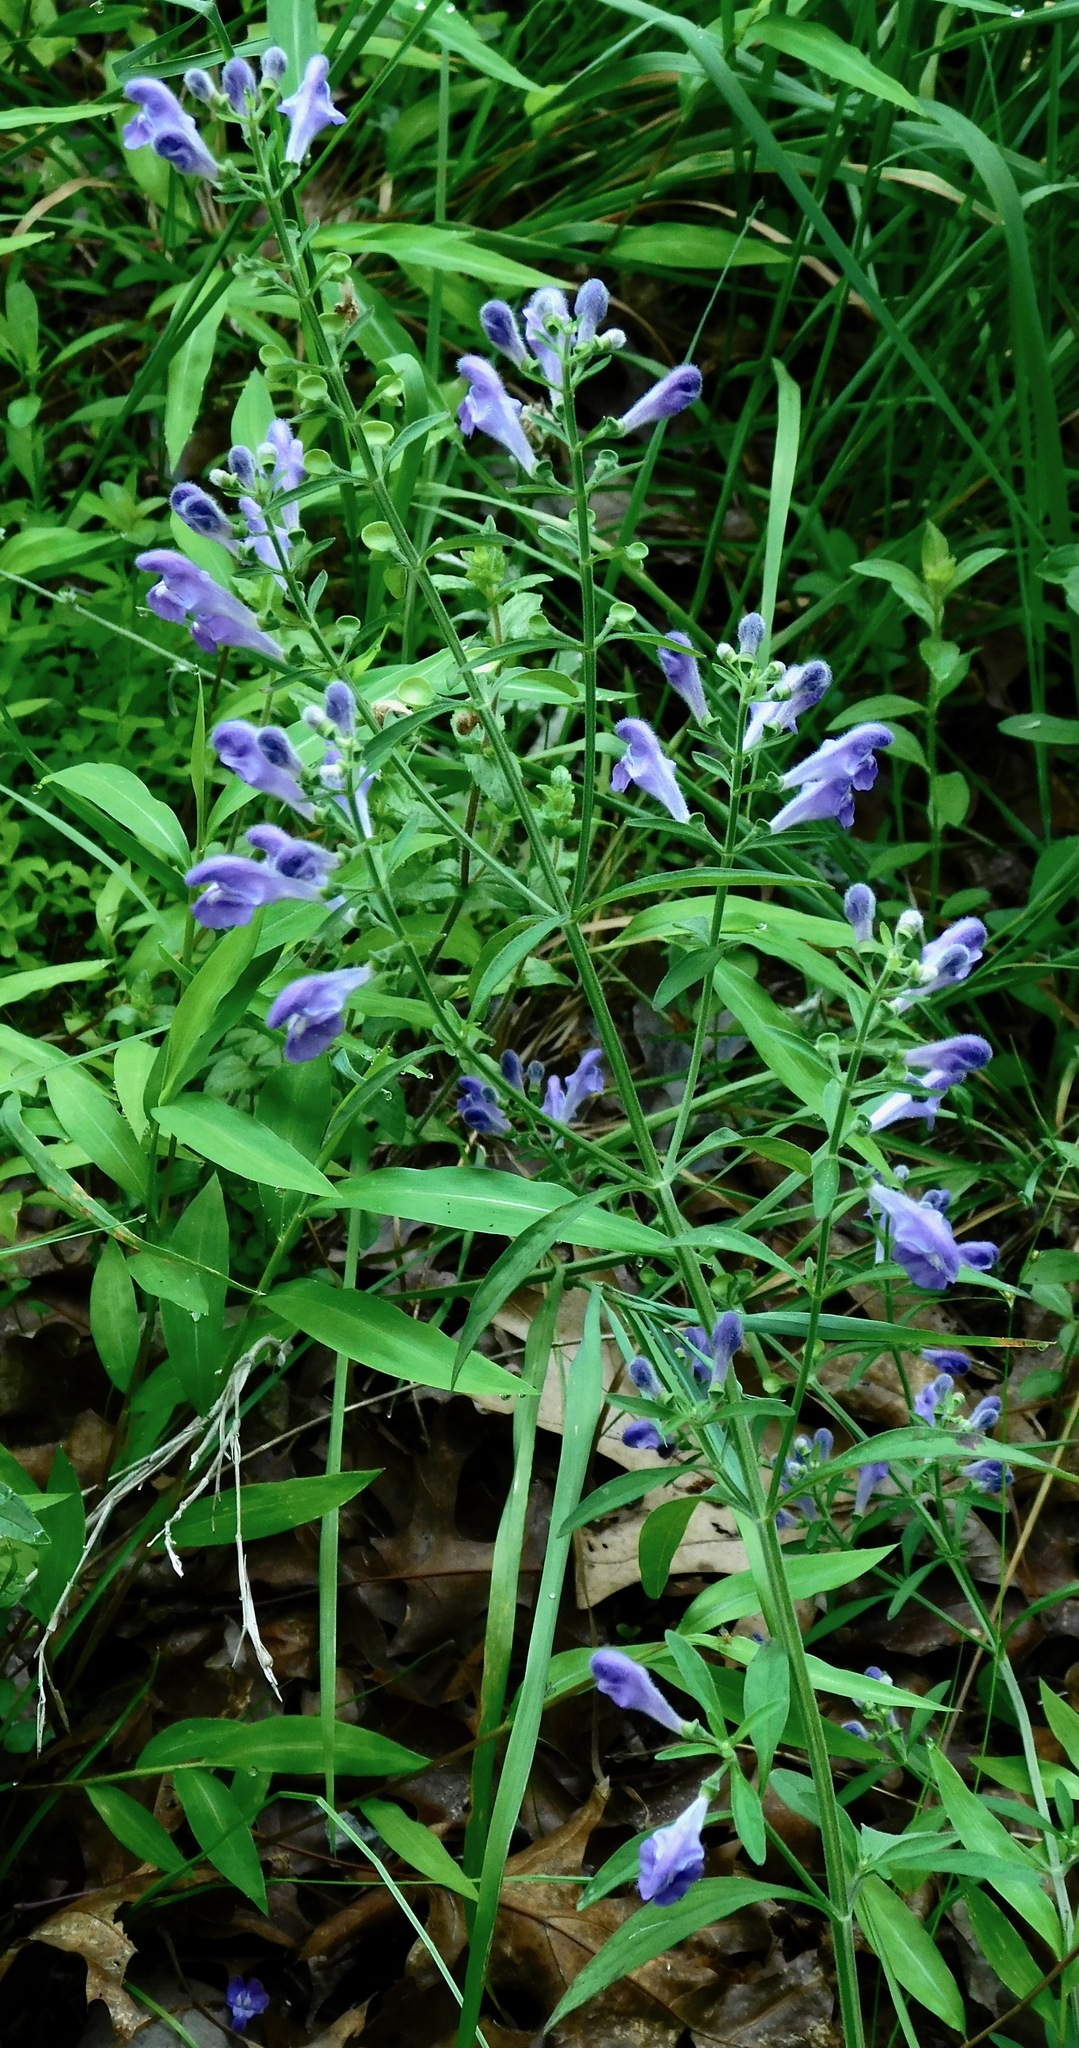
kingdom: Plantae
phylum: Tracheophyta
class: Magnoliopsida
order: Lamiales
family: Lamiaceae
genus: Scutellaria
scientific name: Scutellaria integrifolia
